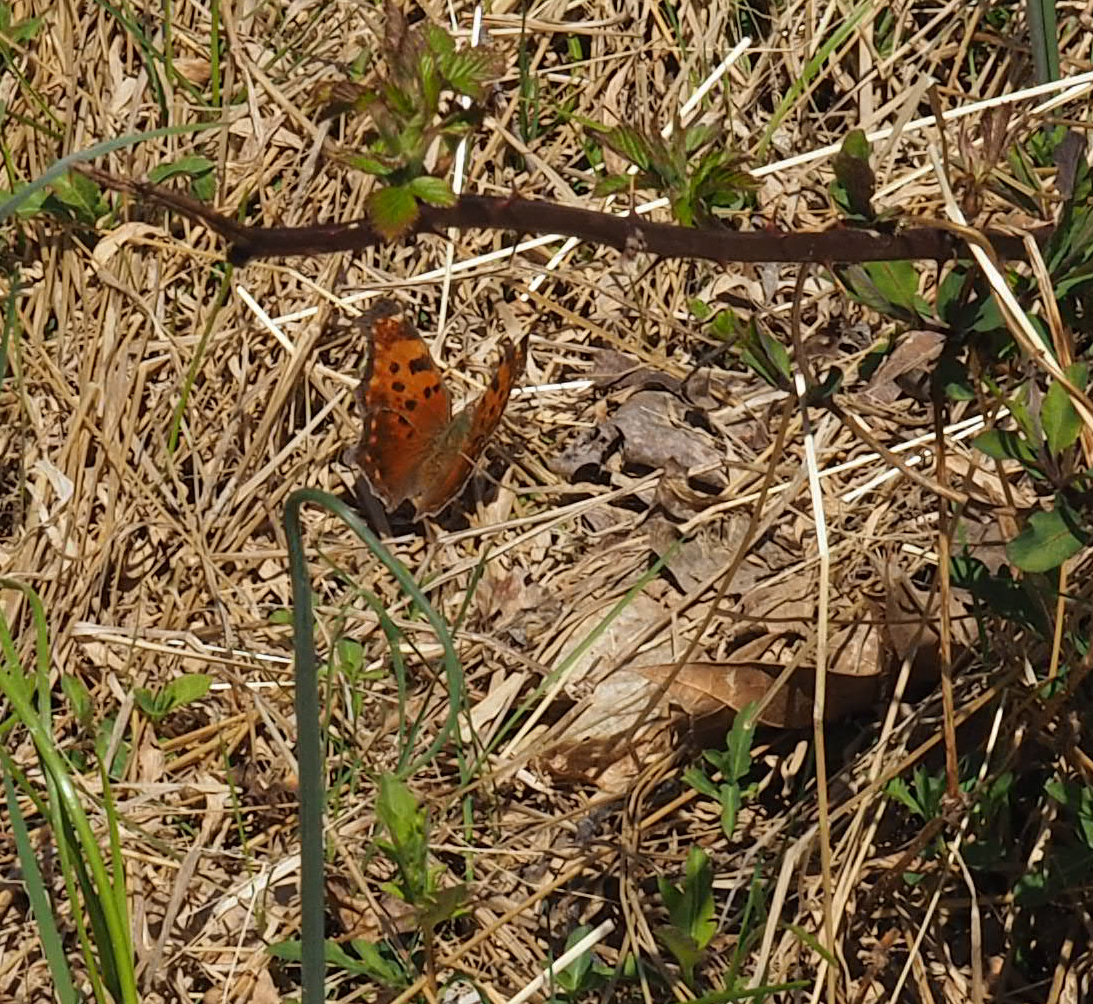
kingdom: Animalia
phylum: Arthropoda
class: Insecta
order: Lepidoptera
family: Nymphalidae
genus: Polygonia
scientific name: Polygonia comma
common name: Eastern comma
